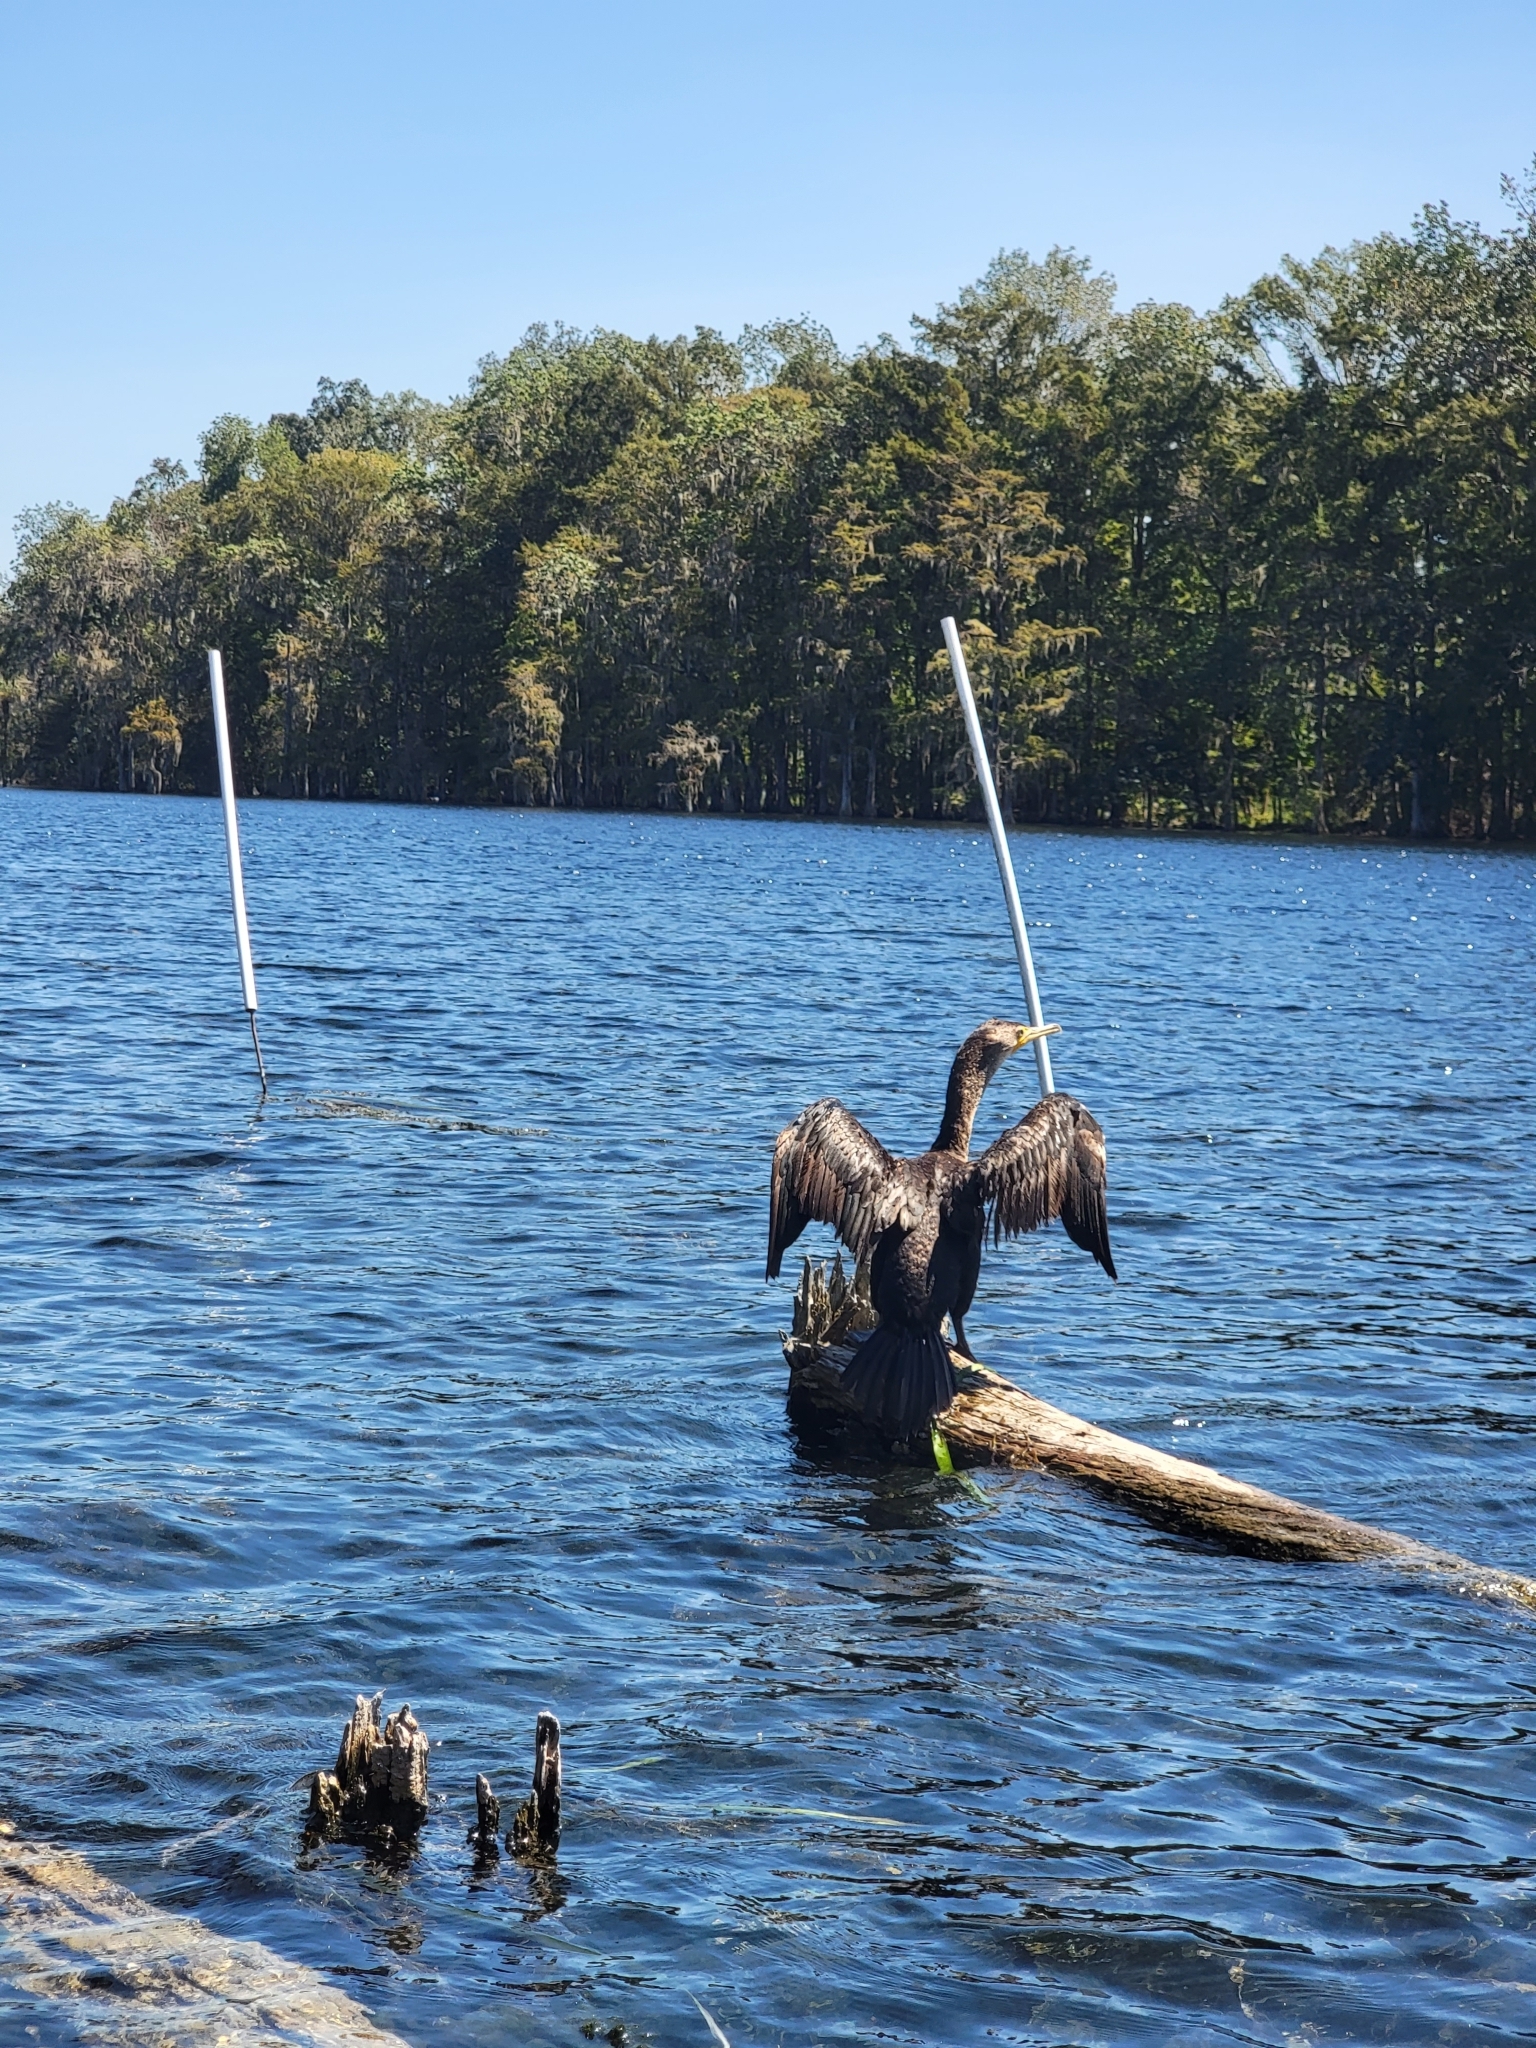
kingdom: Animalia
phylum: Chordata
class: Aves
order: Suliformes
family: Phalacrocoracidae
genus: Phalacrocorax
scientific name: Phalacrocorax auritus
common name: Double-crested cormorant
